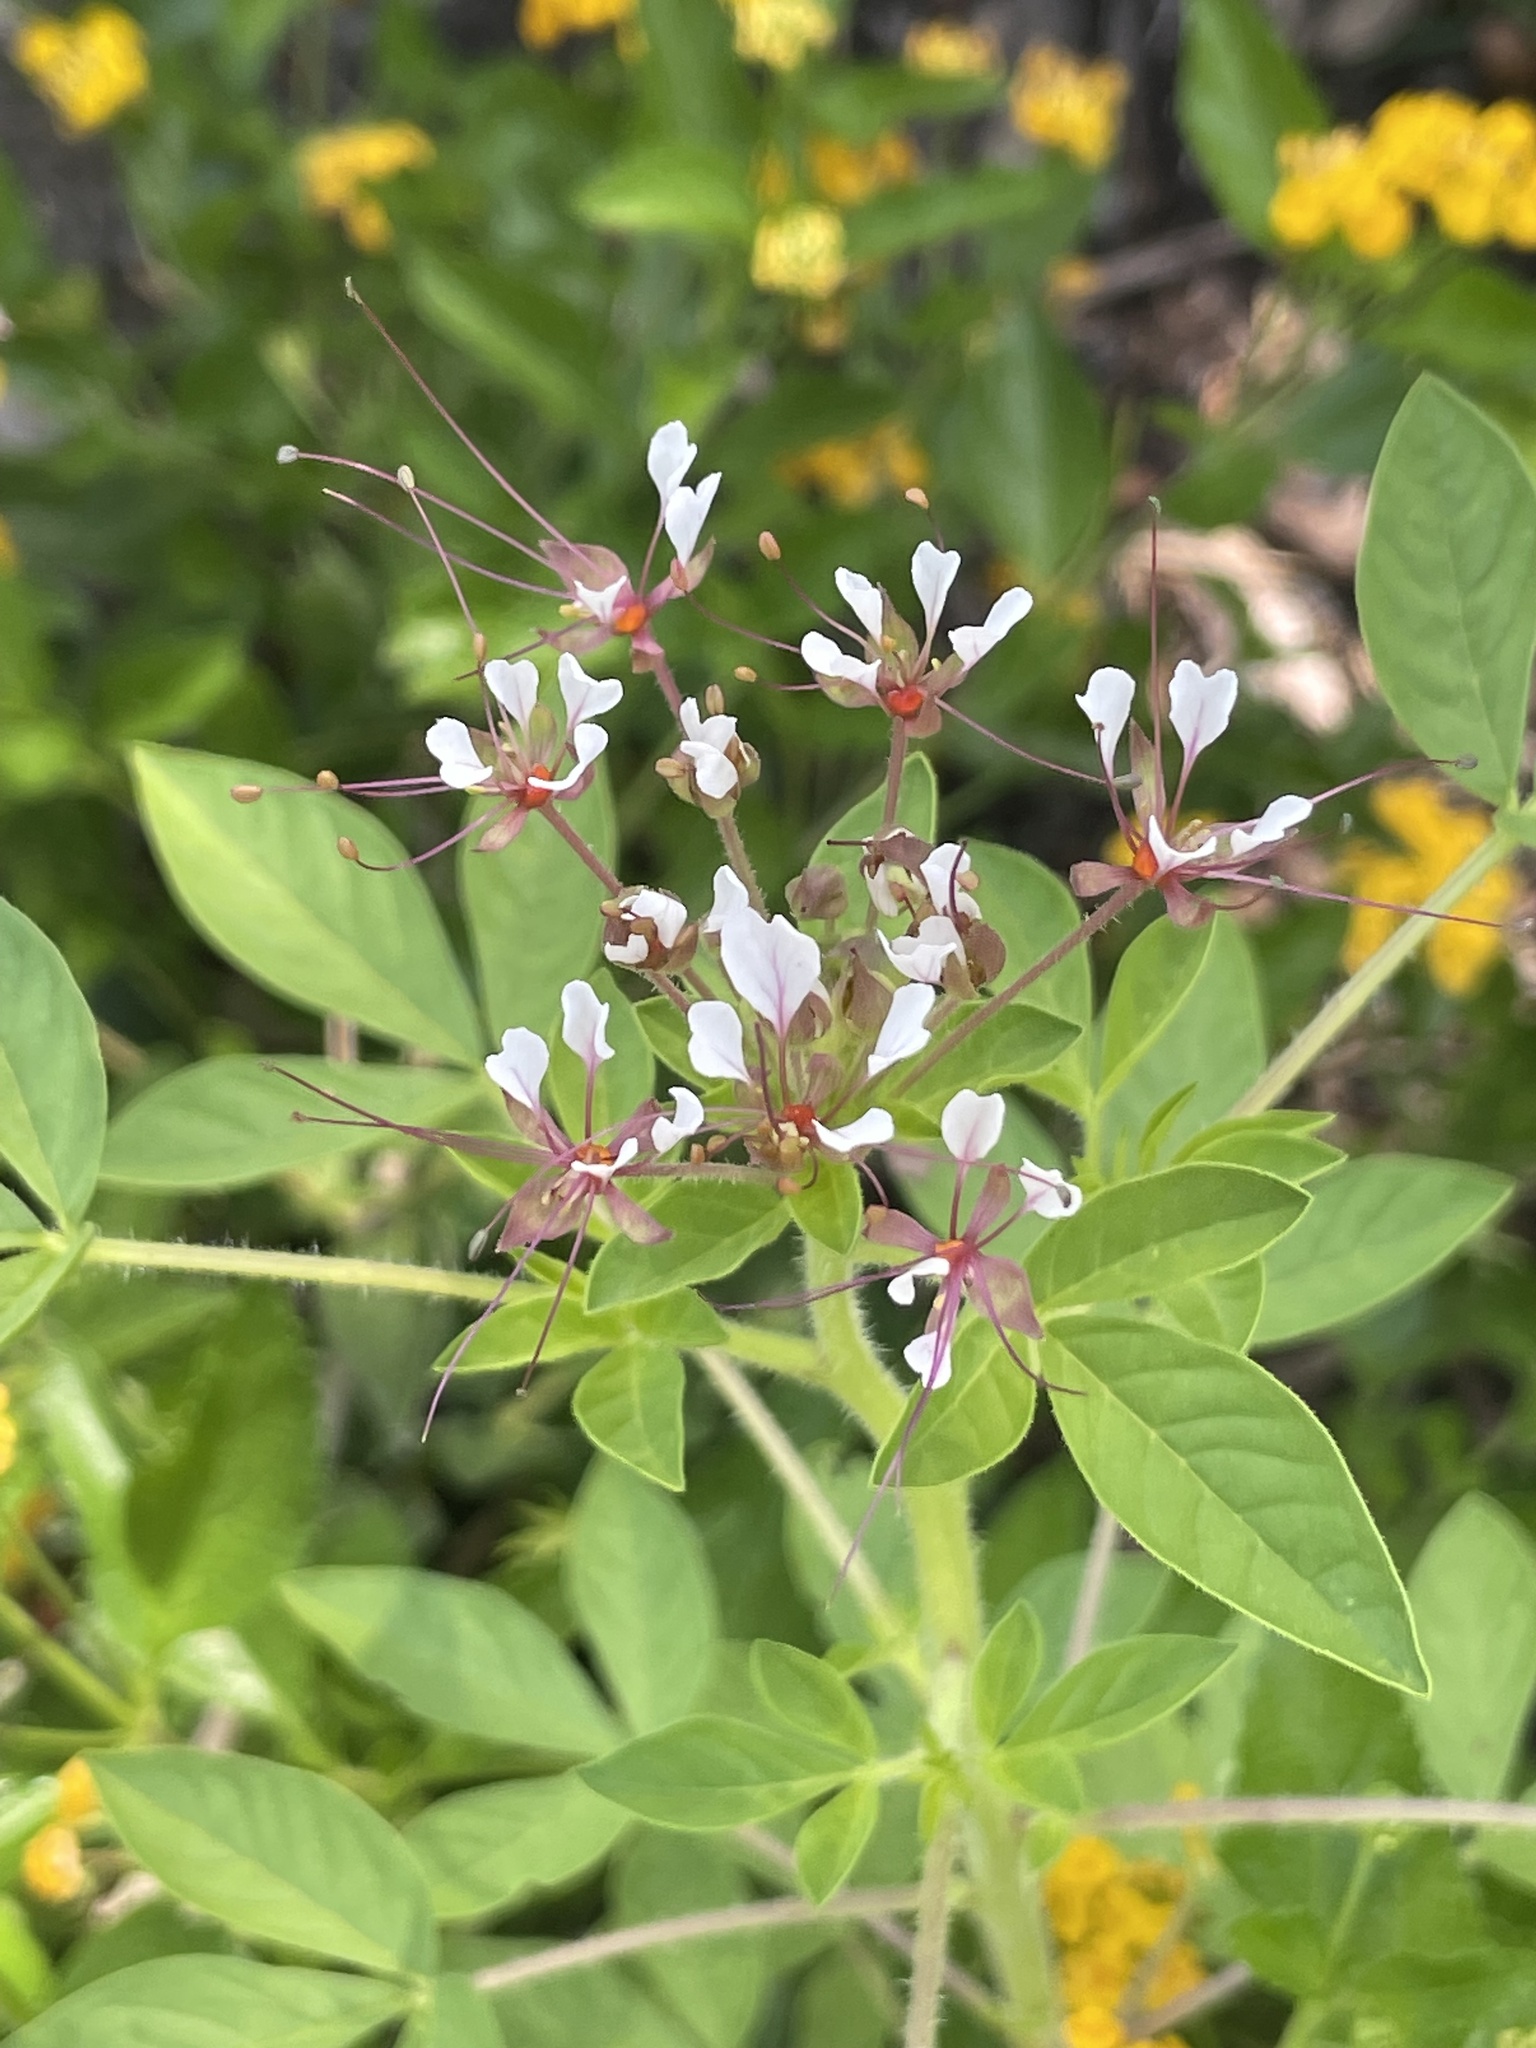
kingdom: Plantae
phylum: Tracheophyta
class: Magnoliopsida
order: Brassicales
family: Cleomaceae
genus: Polanisia
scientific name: Polanisia dodecandra
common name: Clammyweed
